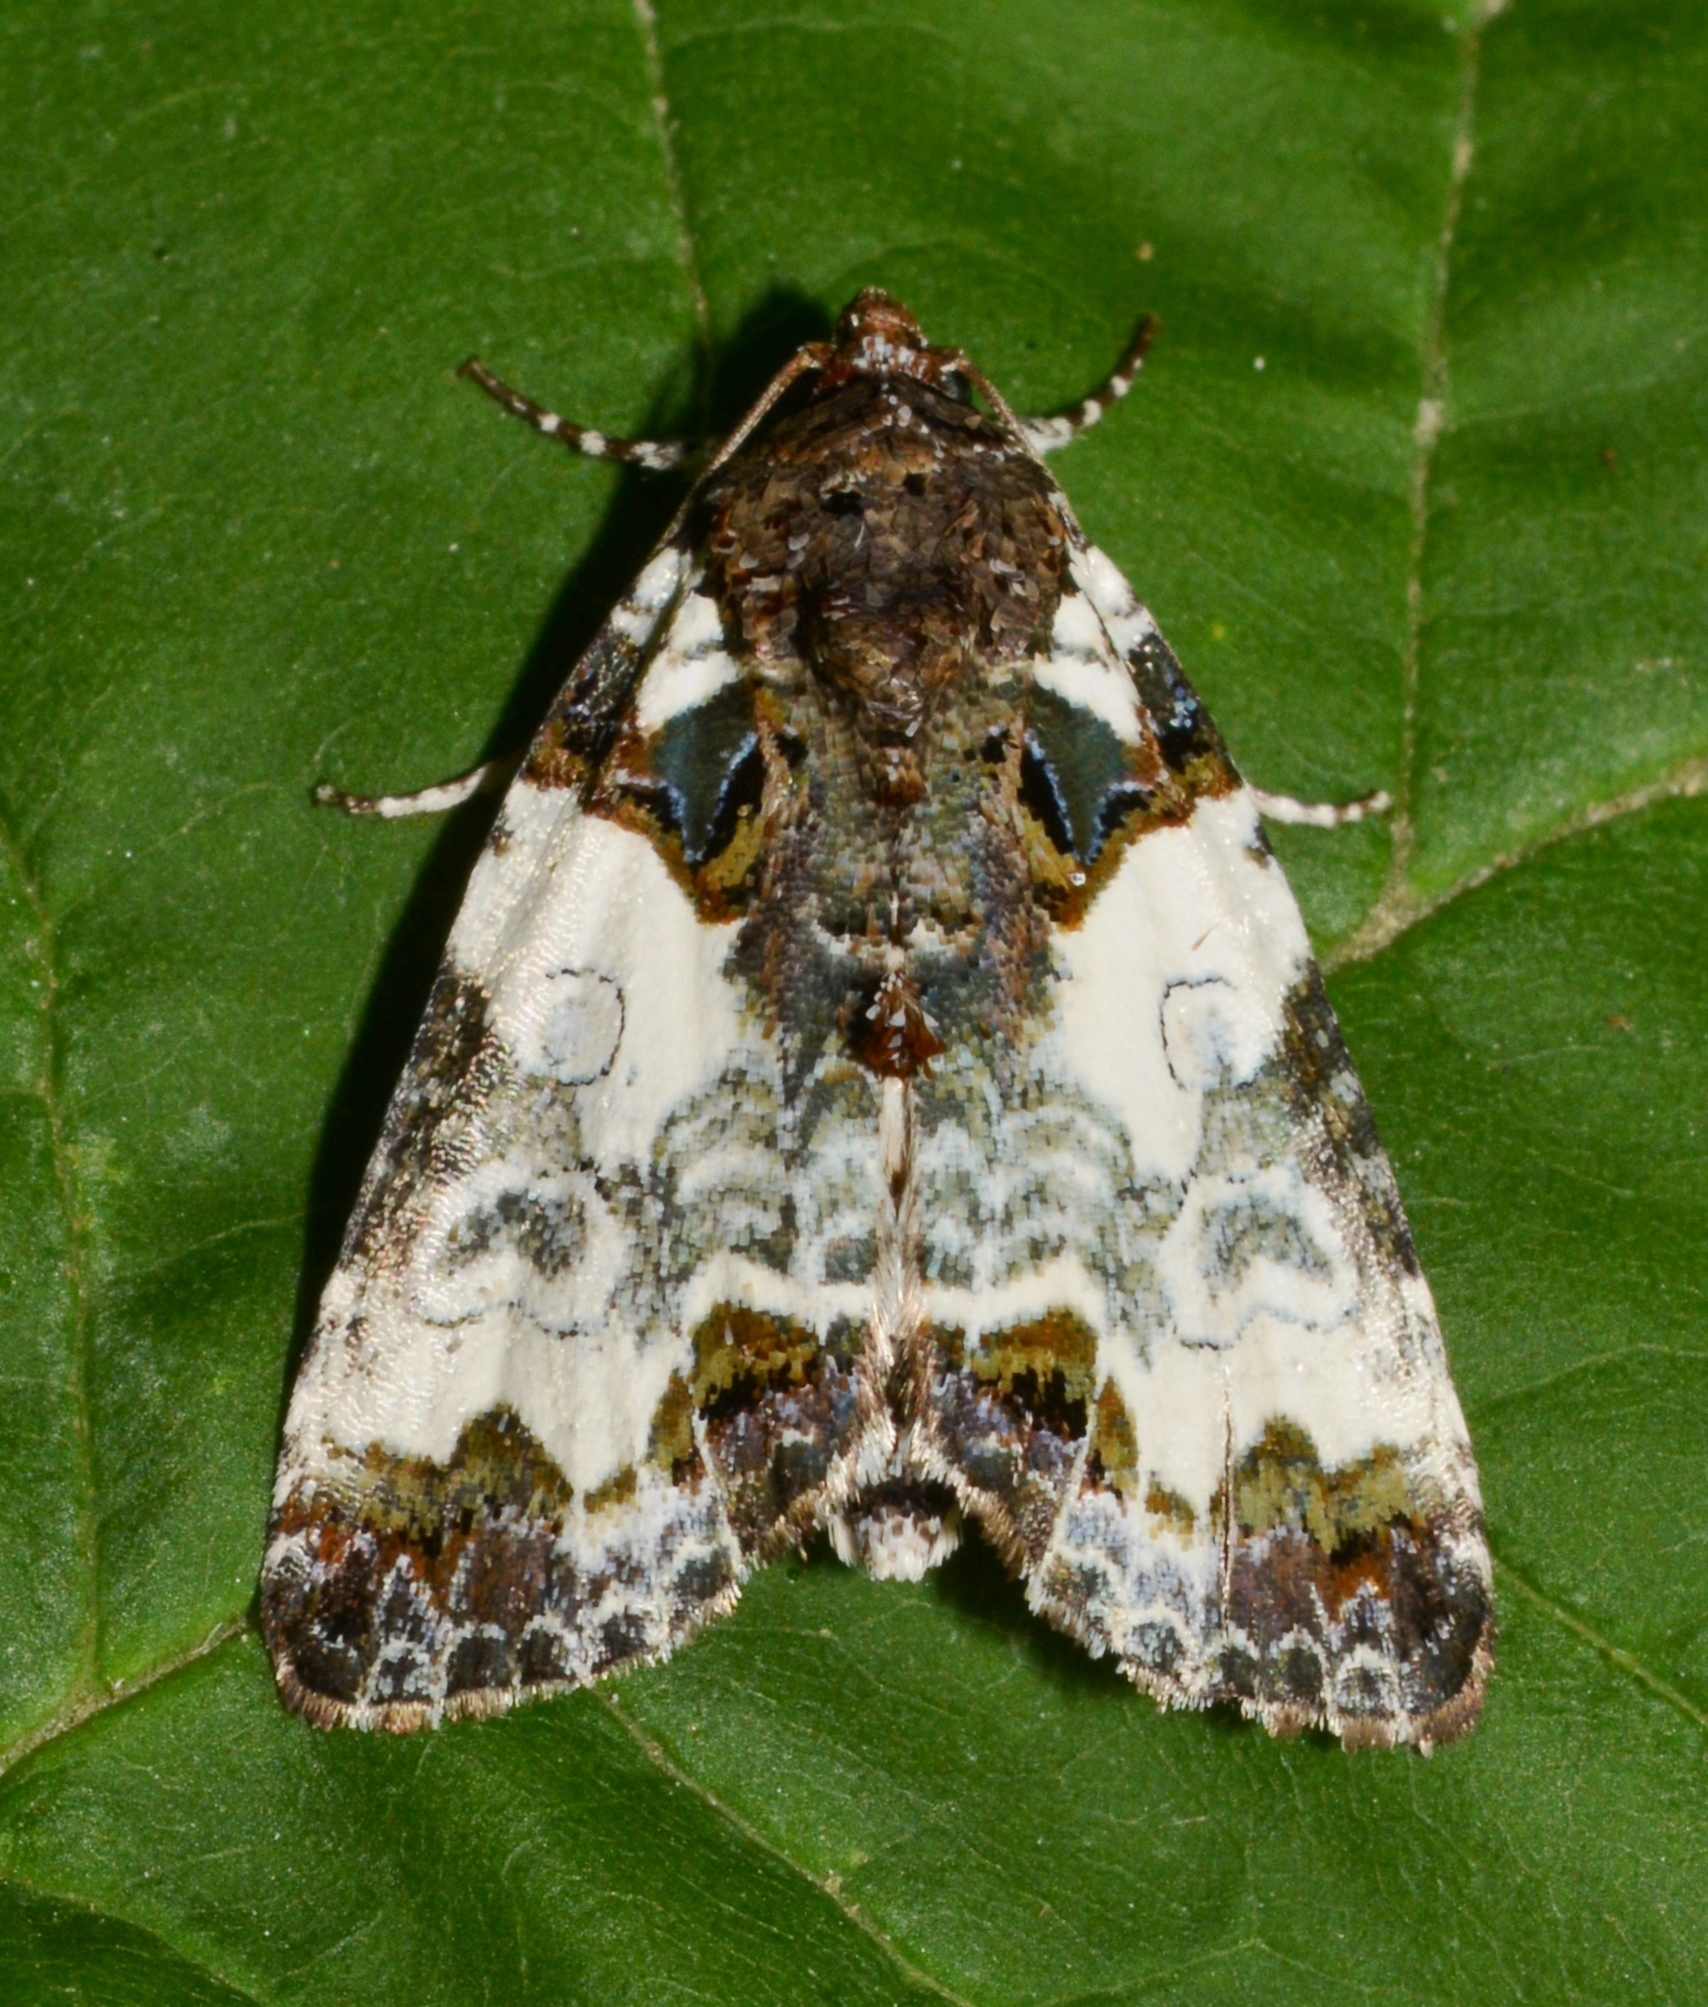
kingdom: Animalia
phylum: Arthropoda
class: Insecta
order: Lepidoptera
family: Noctuidae
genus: Cerma
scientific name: Cerma cerintha
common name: Tufted bird-dropping moth
